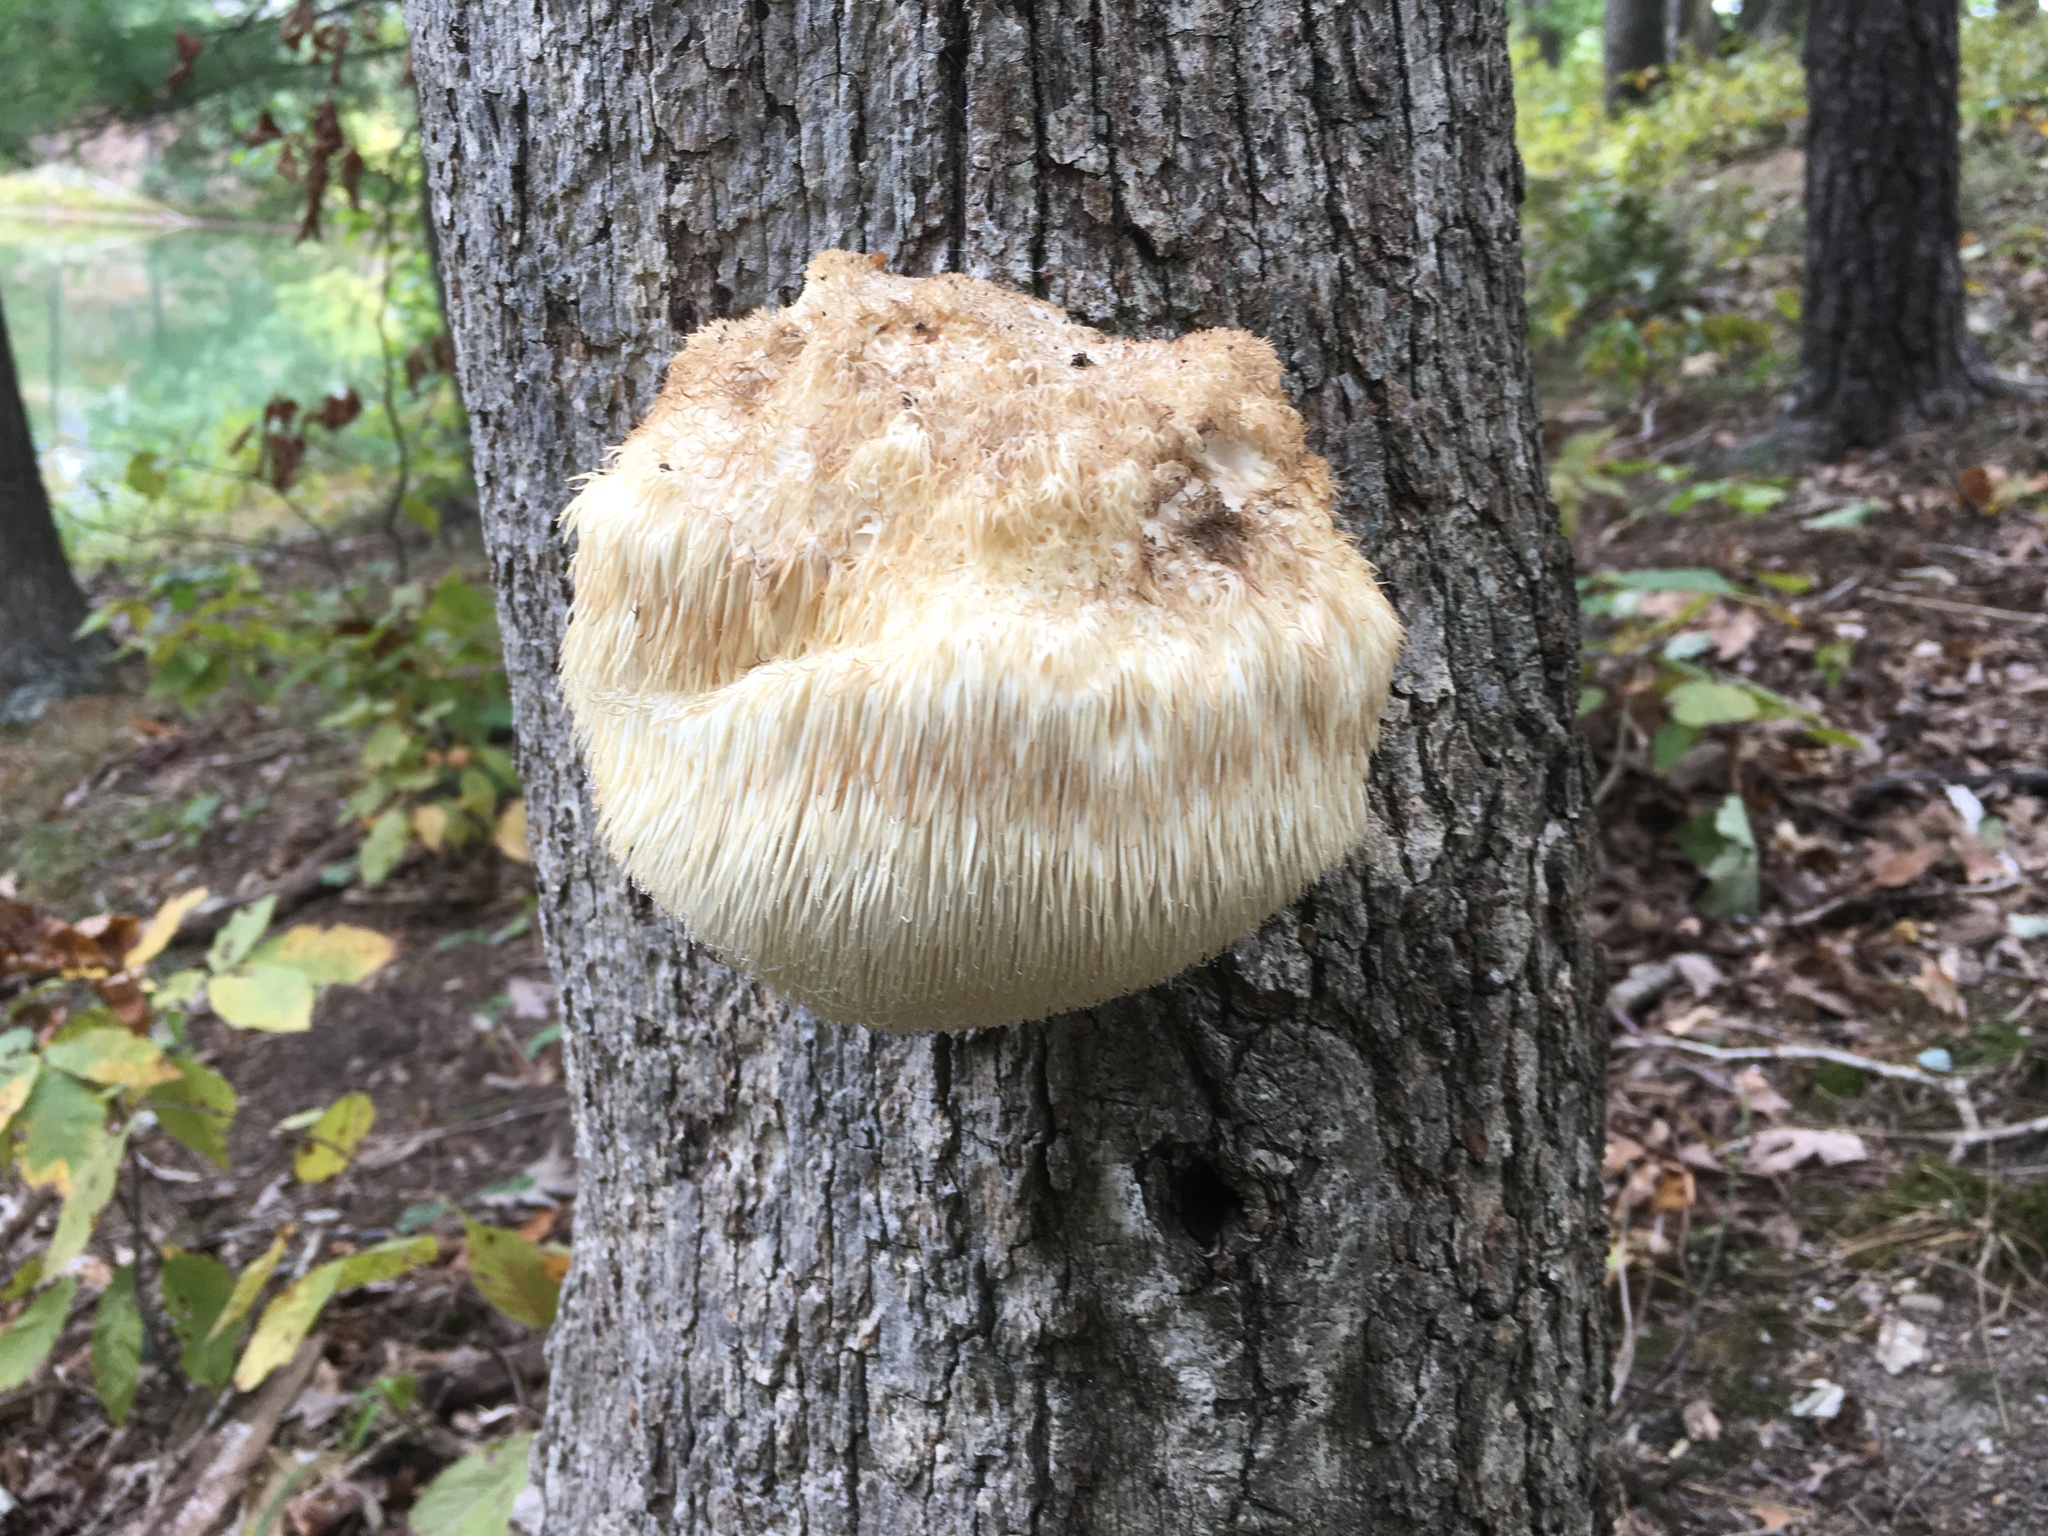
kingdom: Fungi
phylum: Basidiomycota
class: Agaricomycetes
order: Russulales
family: Hericiaceae
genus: Hericium
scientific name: Hericium erinaceus
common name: Bearded tooth
